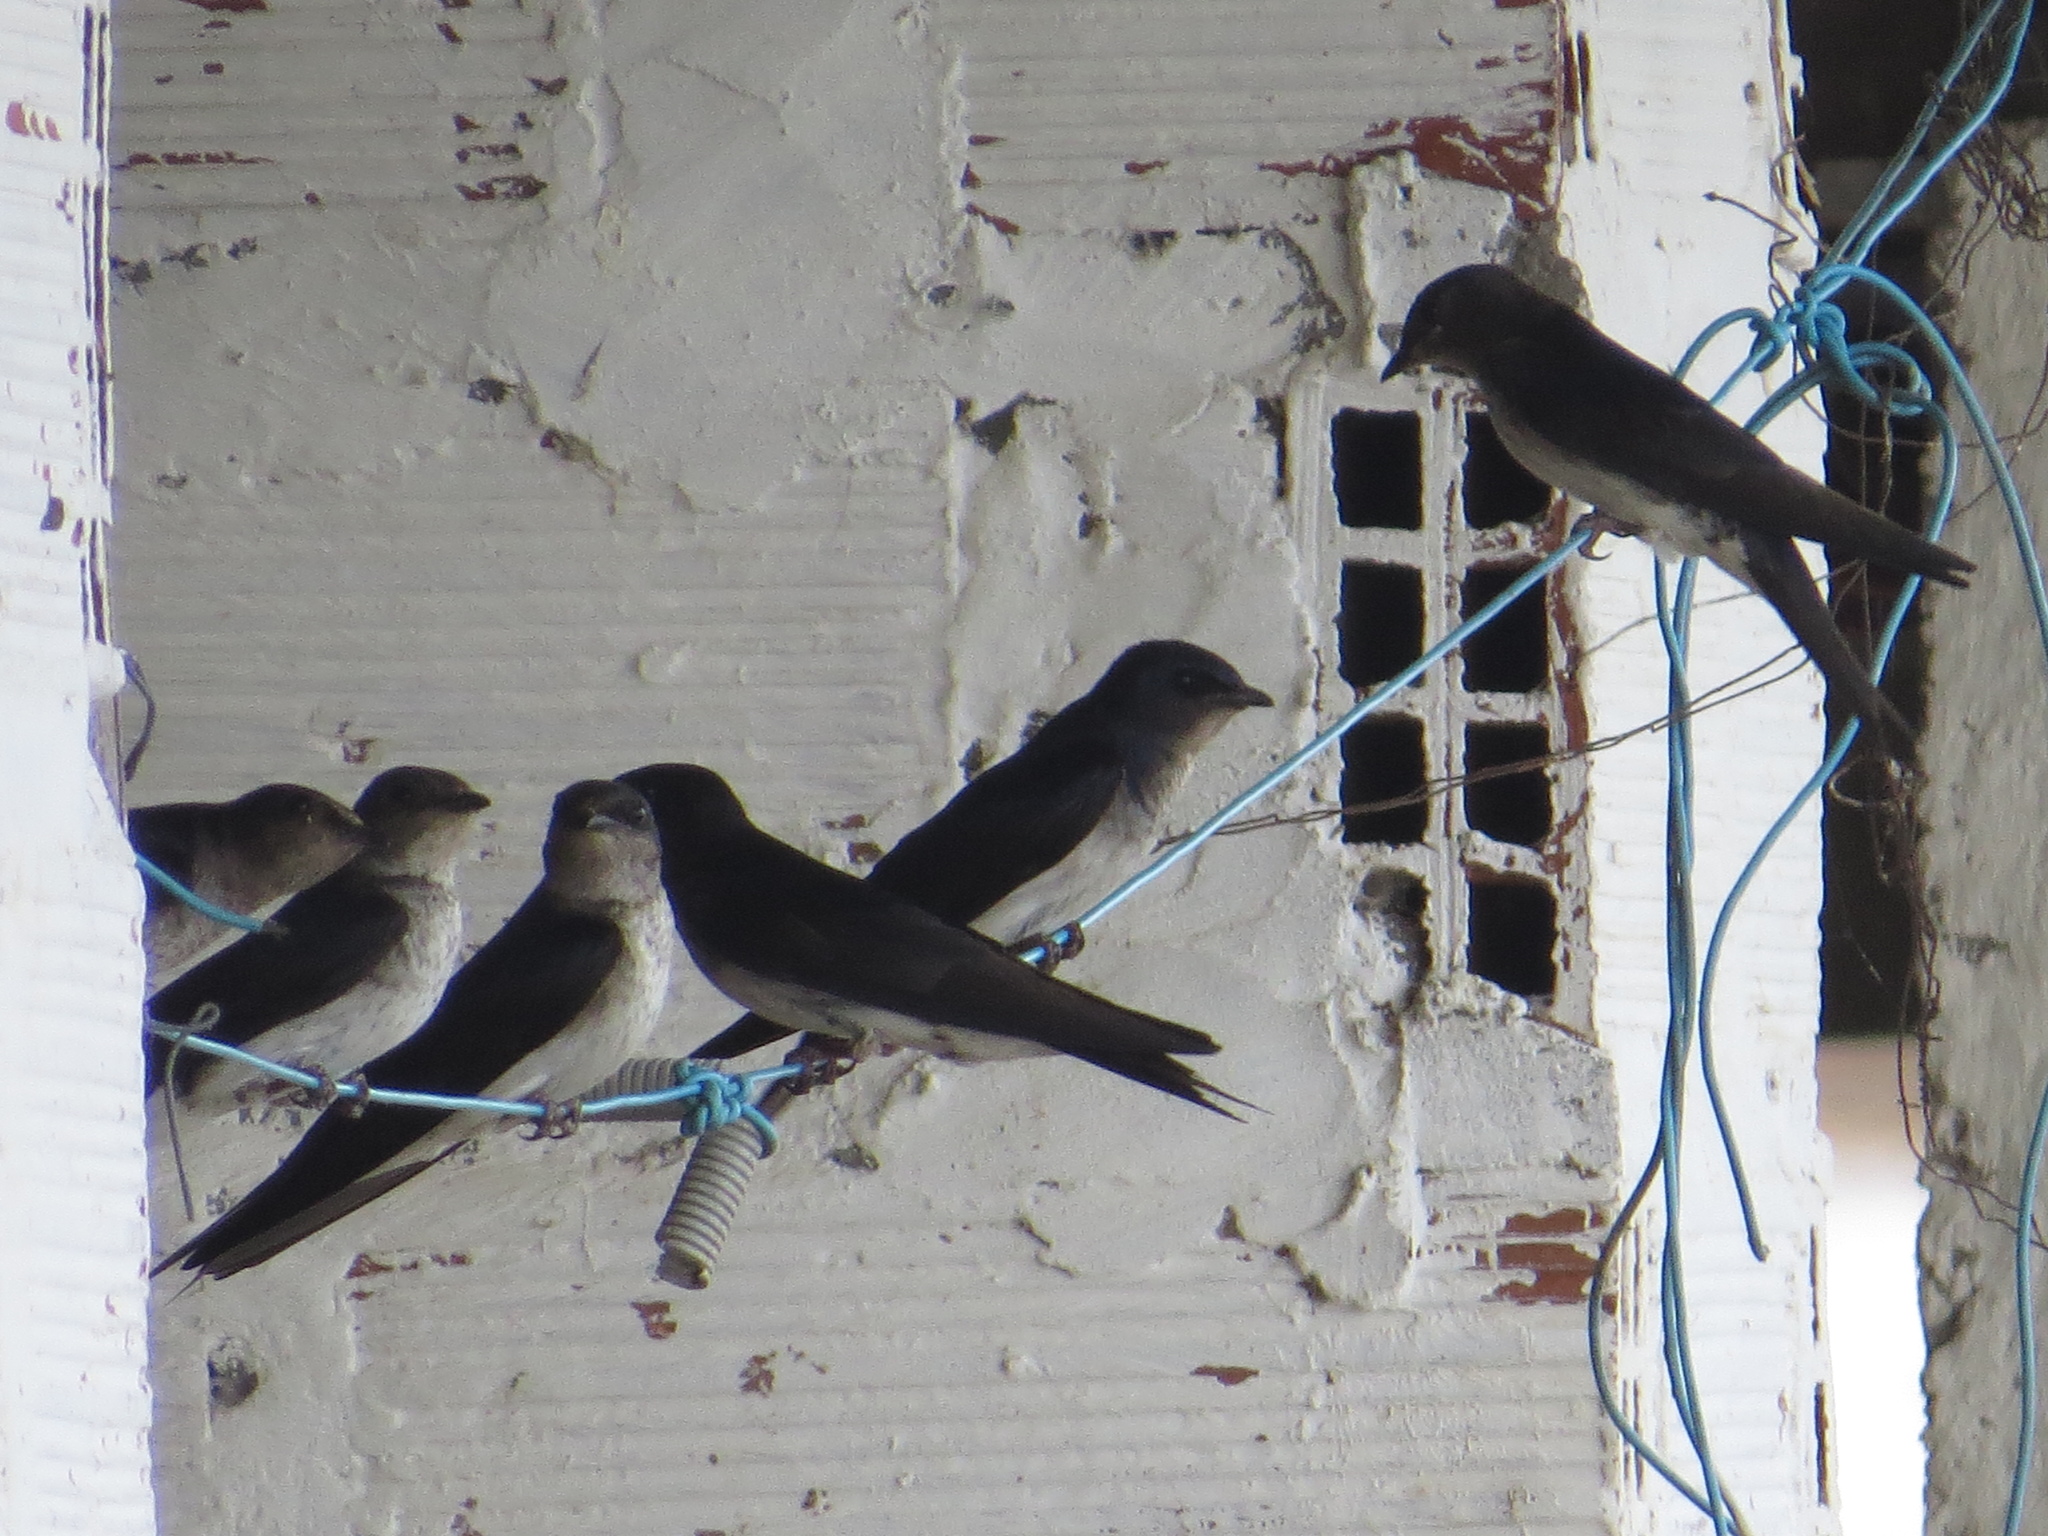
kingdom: Animalia
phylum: Chordata
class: Aves
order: Passeriformes
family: Hirundinidae
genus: Progne
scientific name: Progne chalybea
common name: Grey-breasted martin
